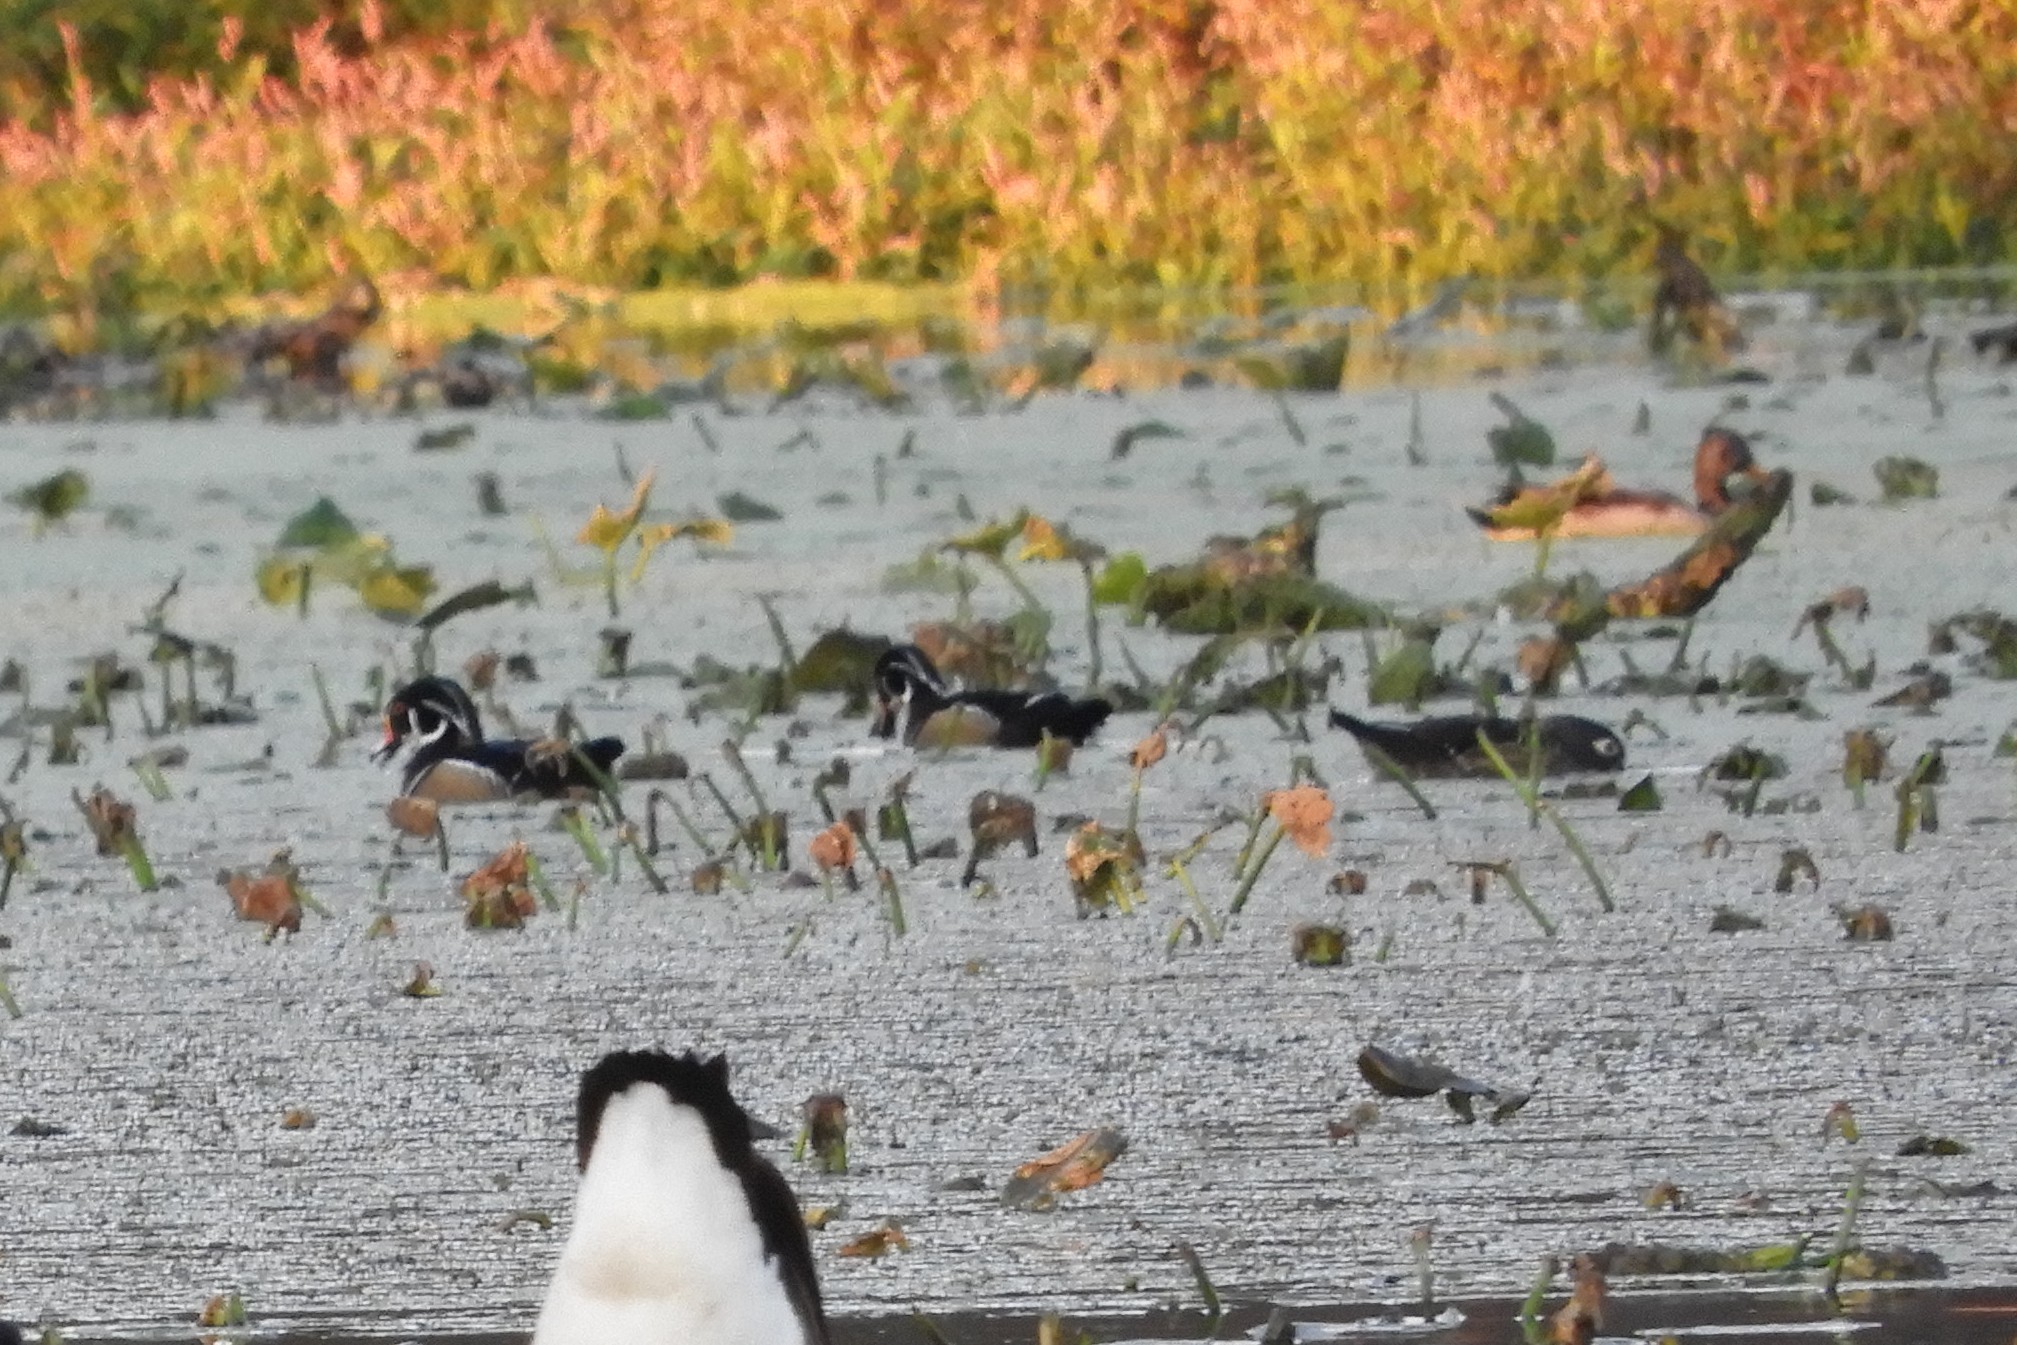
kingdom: Animalia
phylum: Chordata
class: Aves
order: Anseriformes
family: Anatidae
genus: Aix
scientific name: Aix sponsa
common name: Wood duck
